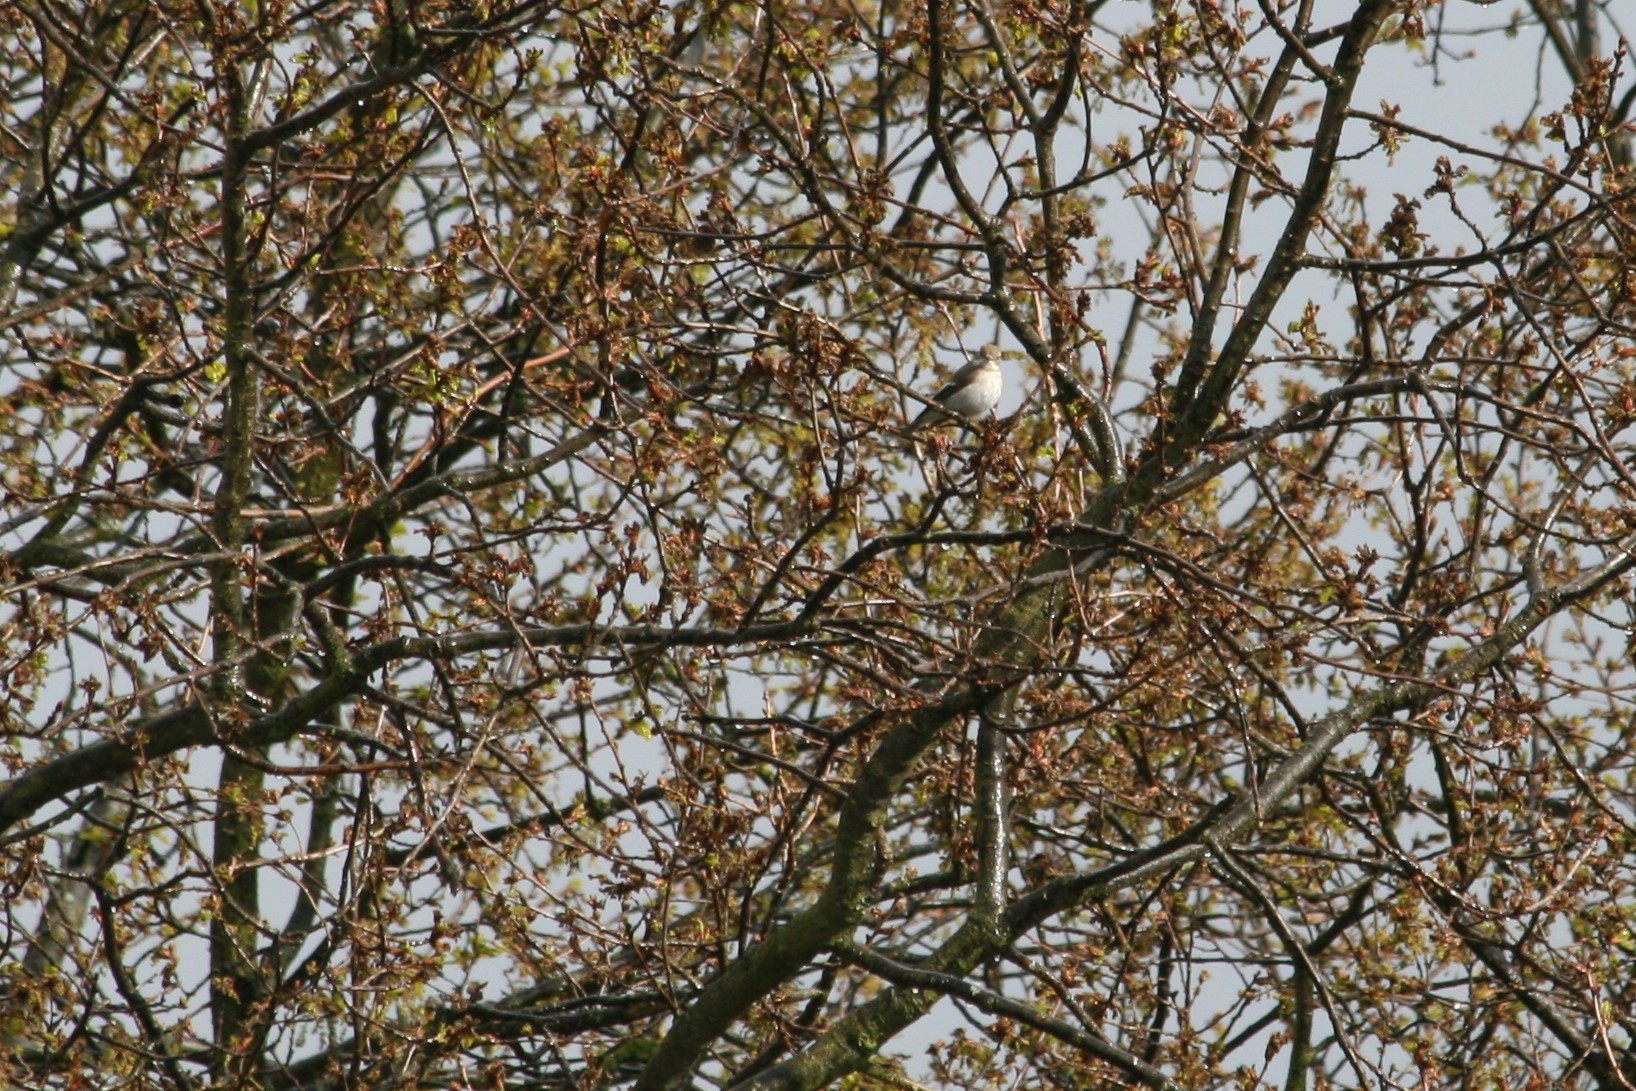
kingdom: Animalia
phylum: Chordata
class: Aves
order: Passeriformes
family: Muscicapidae
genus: Ficedula
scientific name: Ficedula hypoleuca
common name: European pied flycatcher
